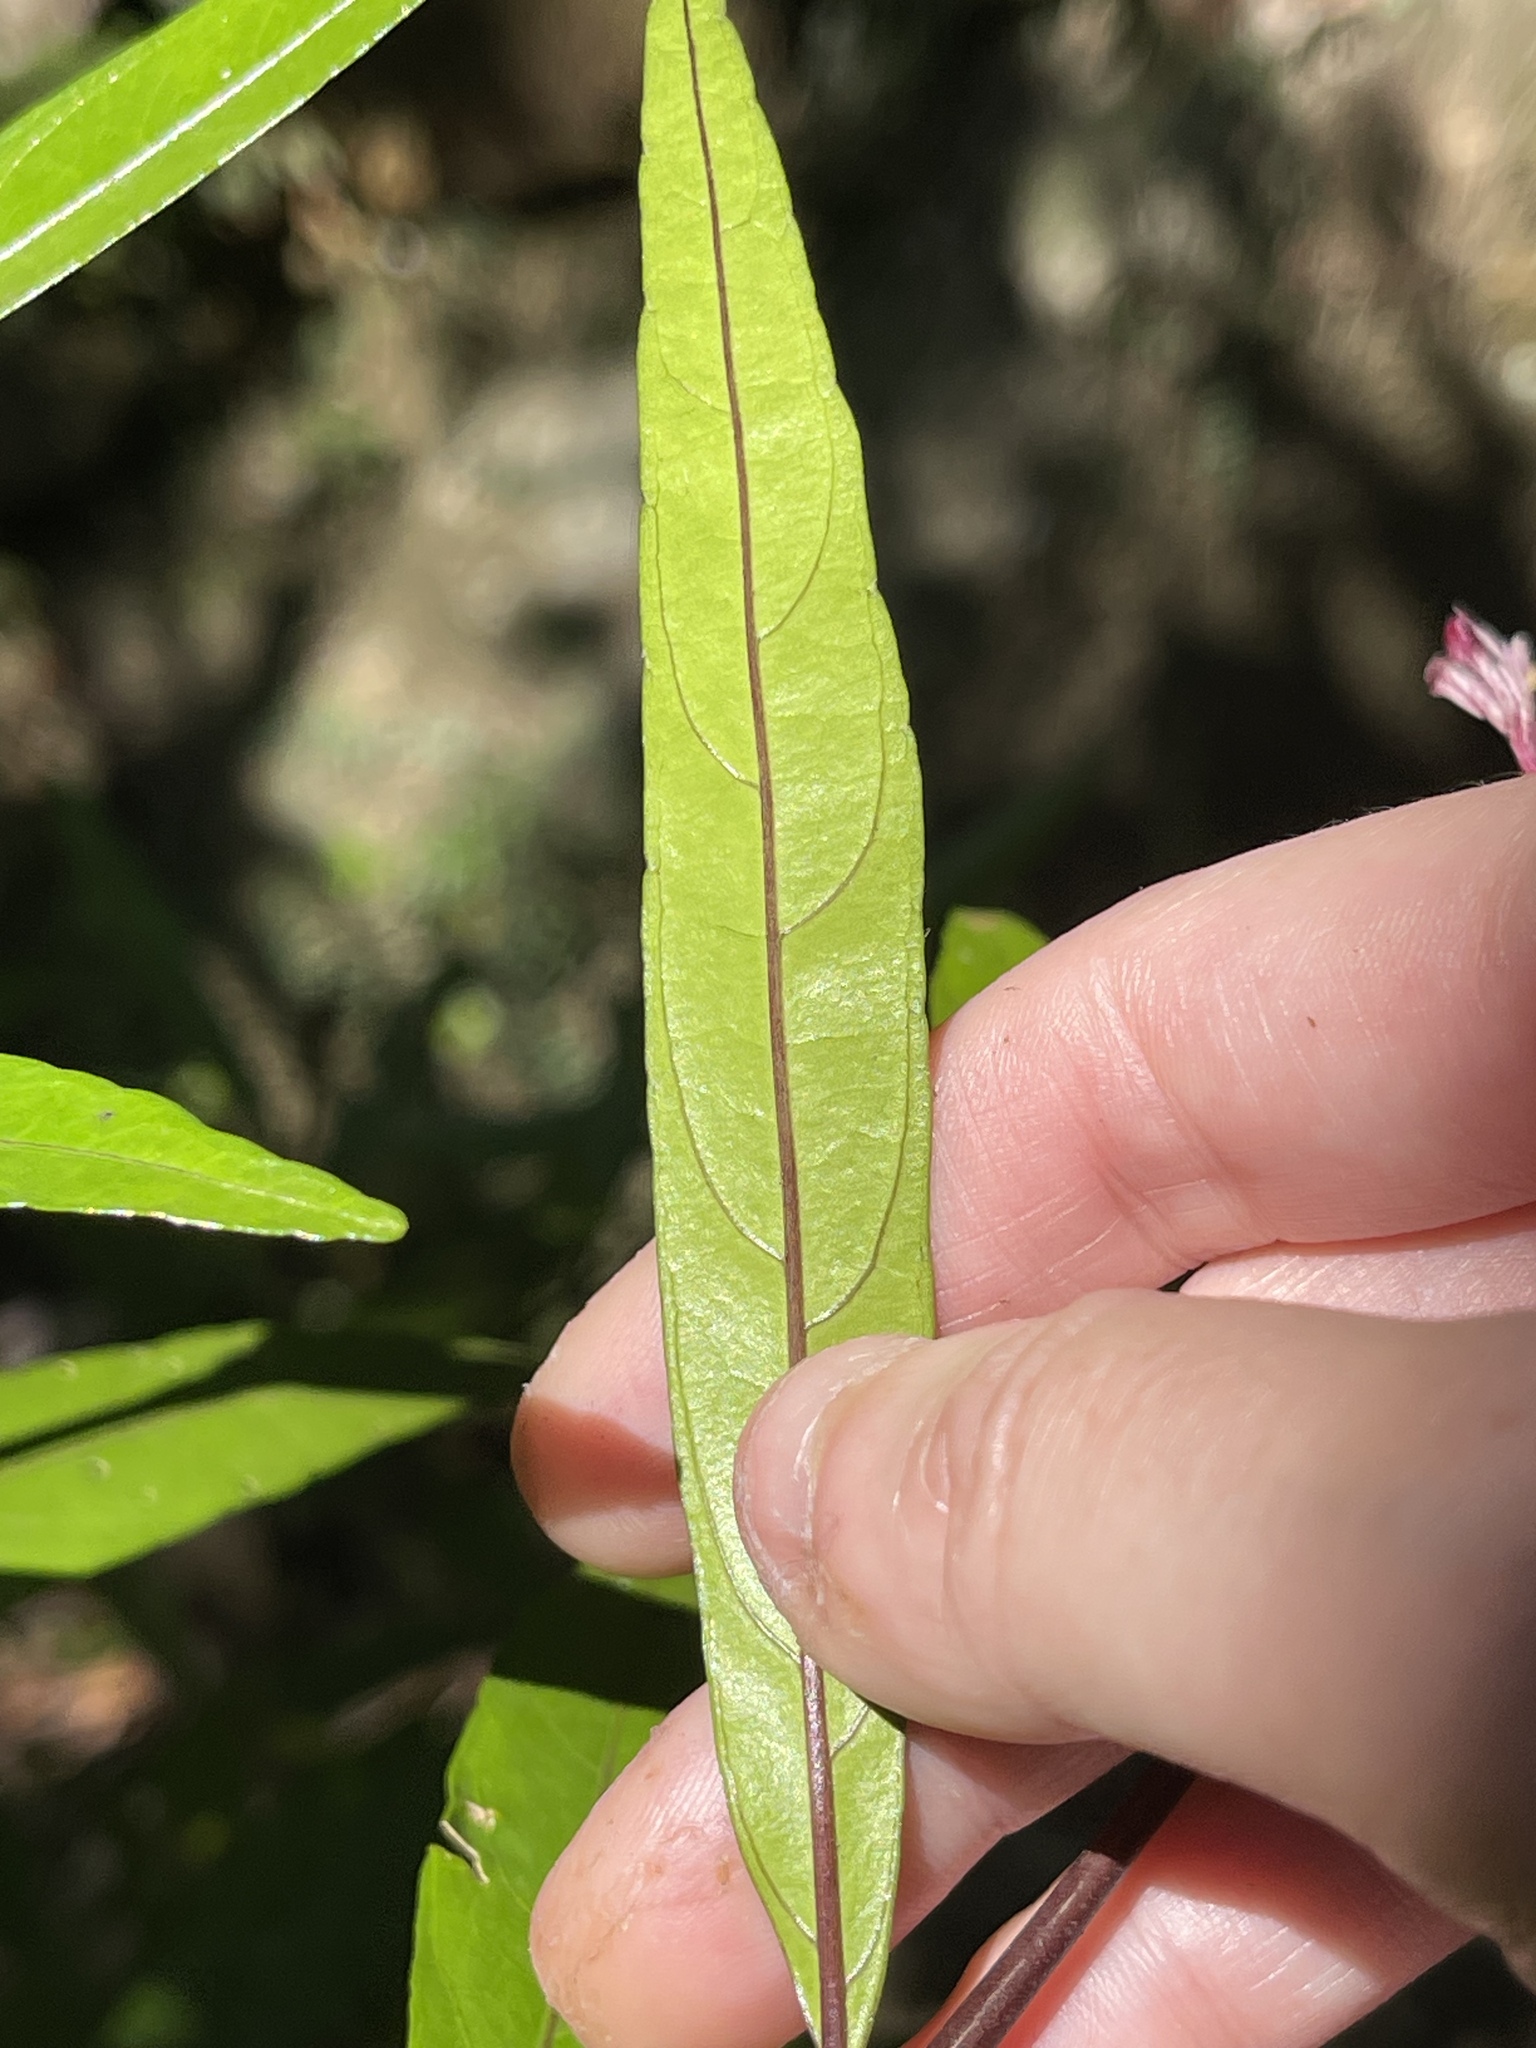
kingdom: Plantae
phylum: Tracheophyta
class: Magnoliopsida
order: Lamiales
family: Acanthaceae
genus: Justicia
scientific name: Justicia gendarussa
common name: Warer willow
